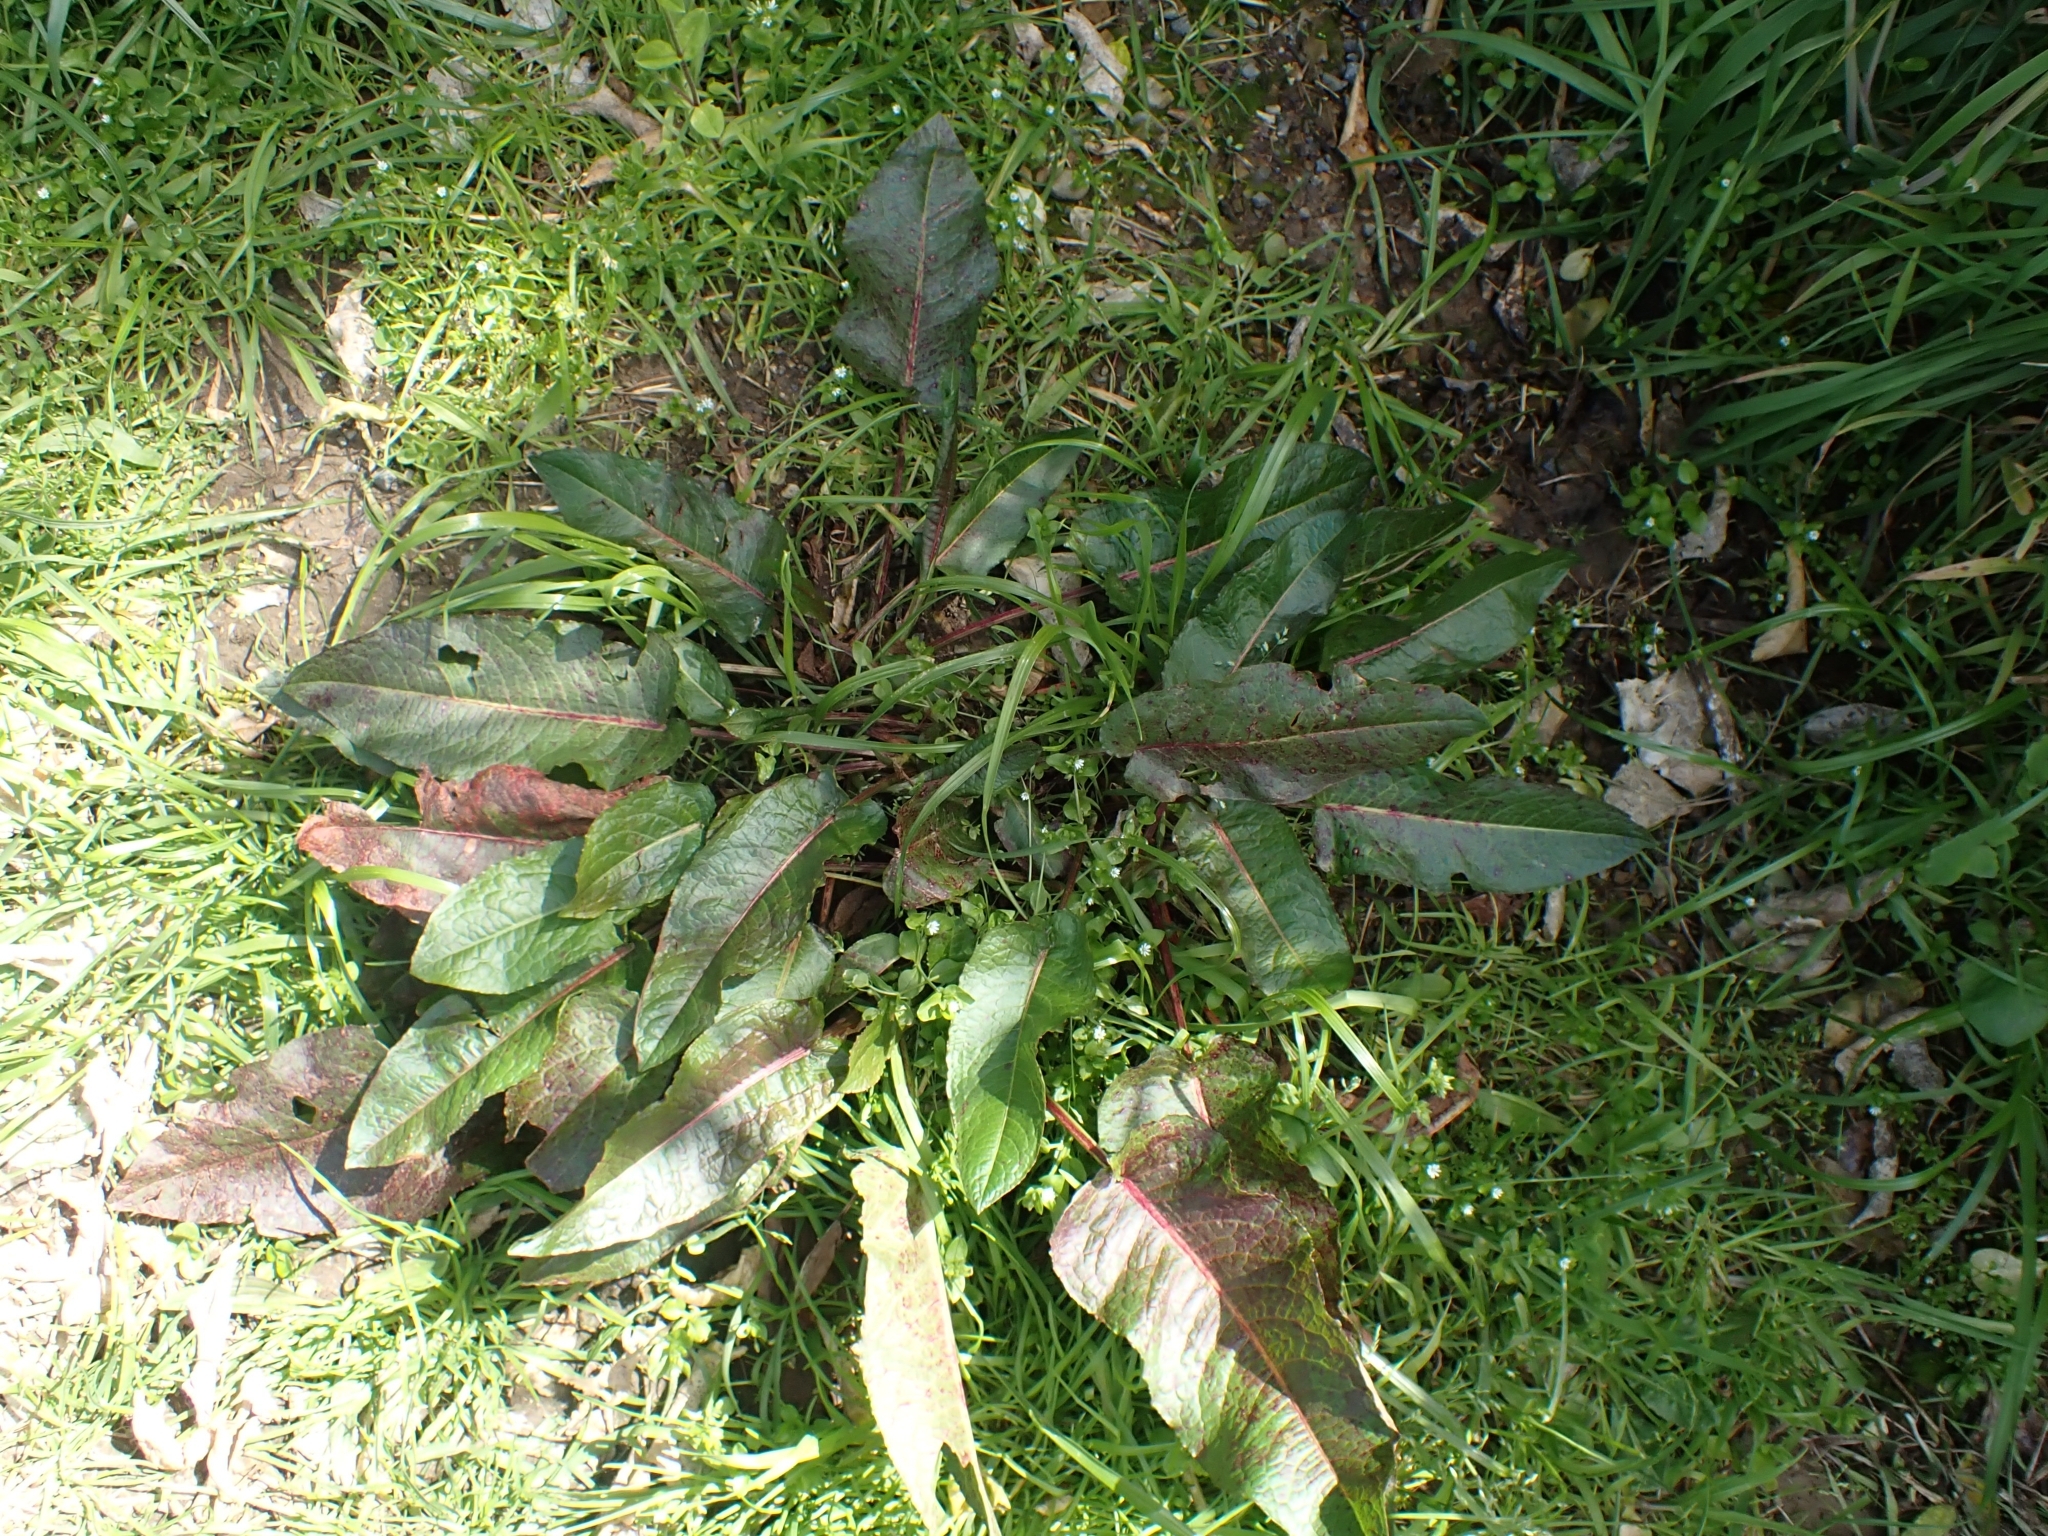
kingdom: Plantae
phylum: Tracheophyta
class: Magnoliopsida
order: Caryophyllales
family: Polygonaceae
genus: Rumex
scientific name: Rumex obtusifolius
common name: Bitter dock
